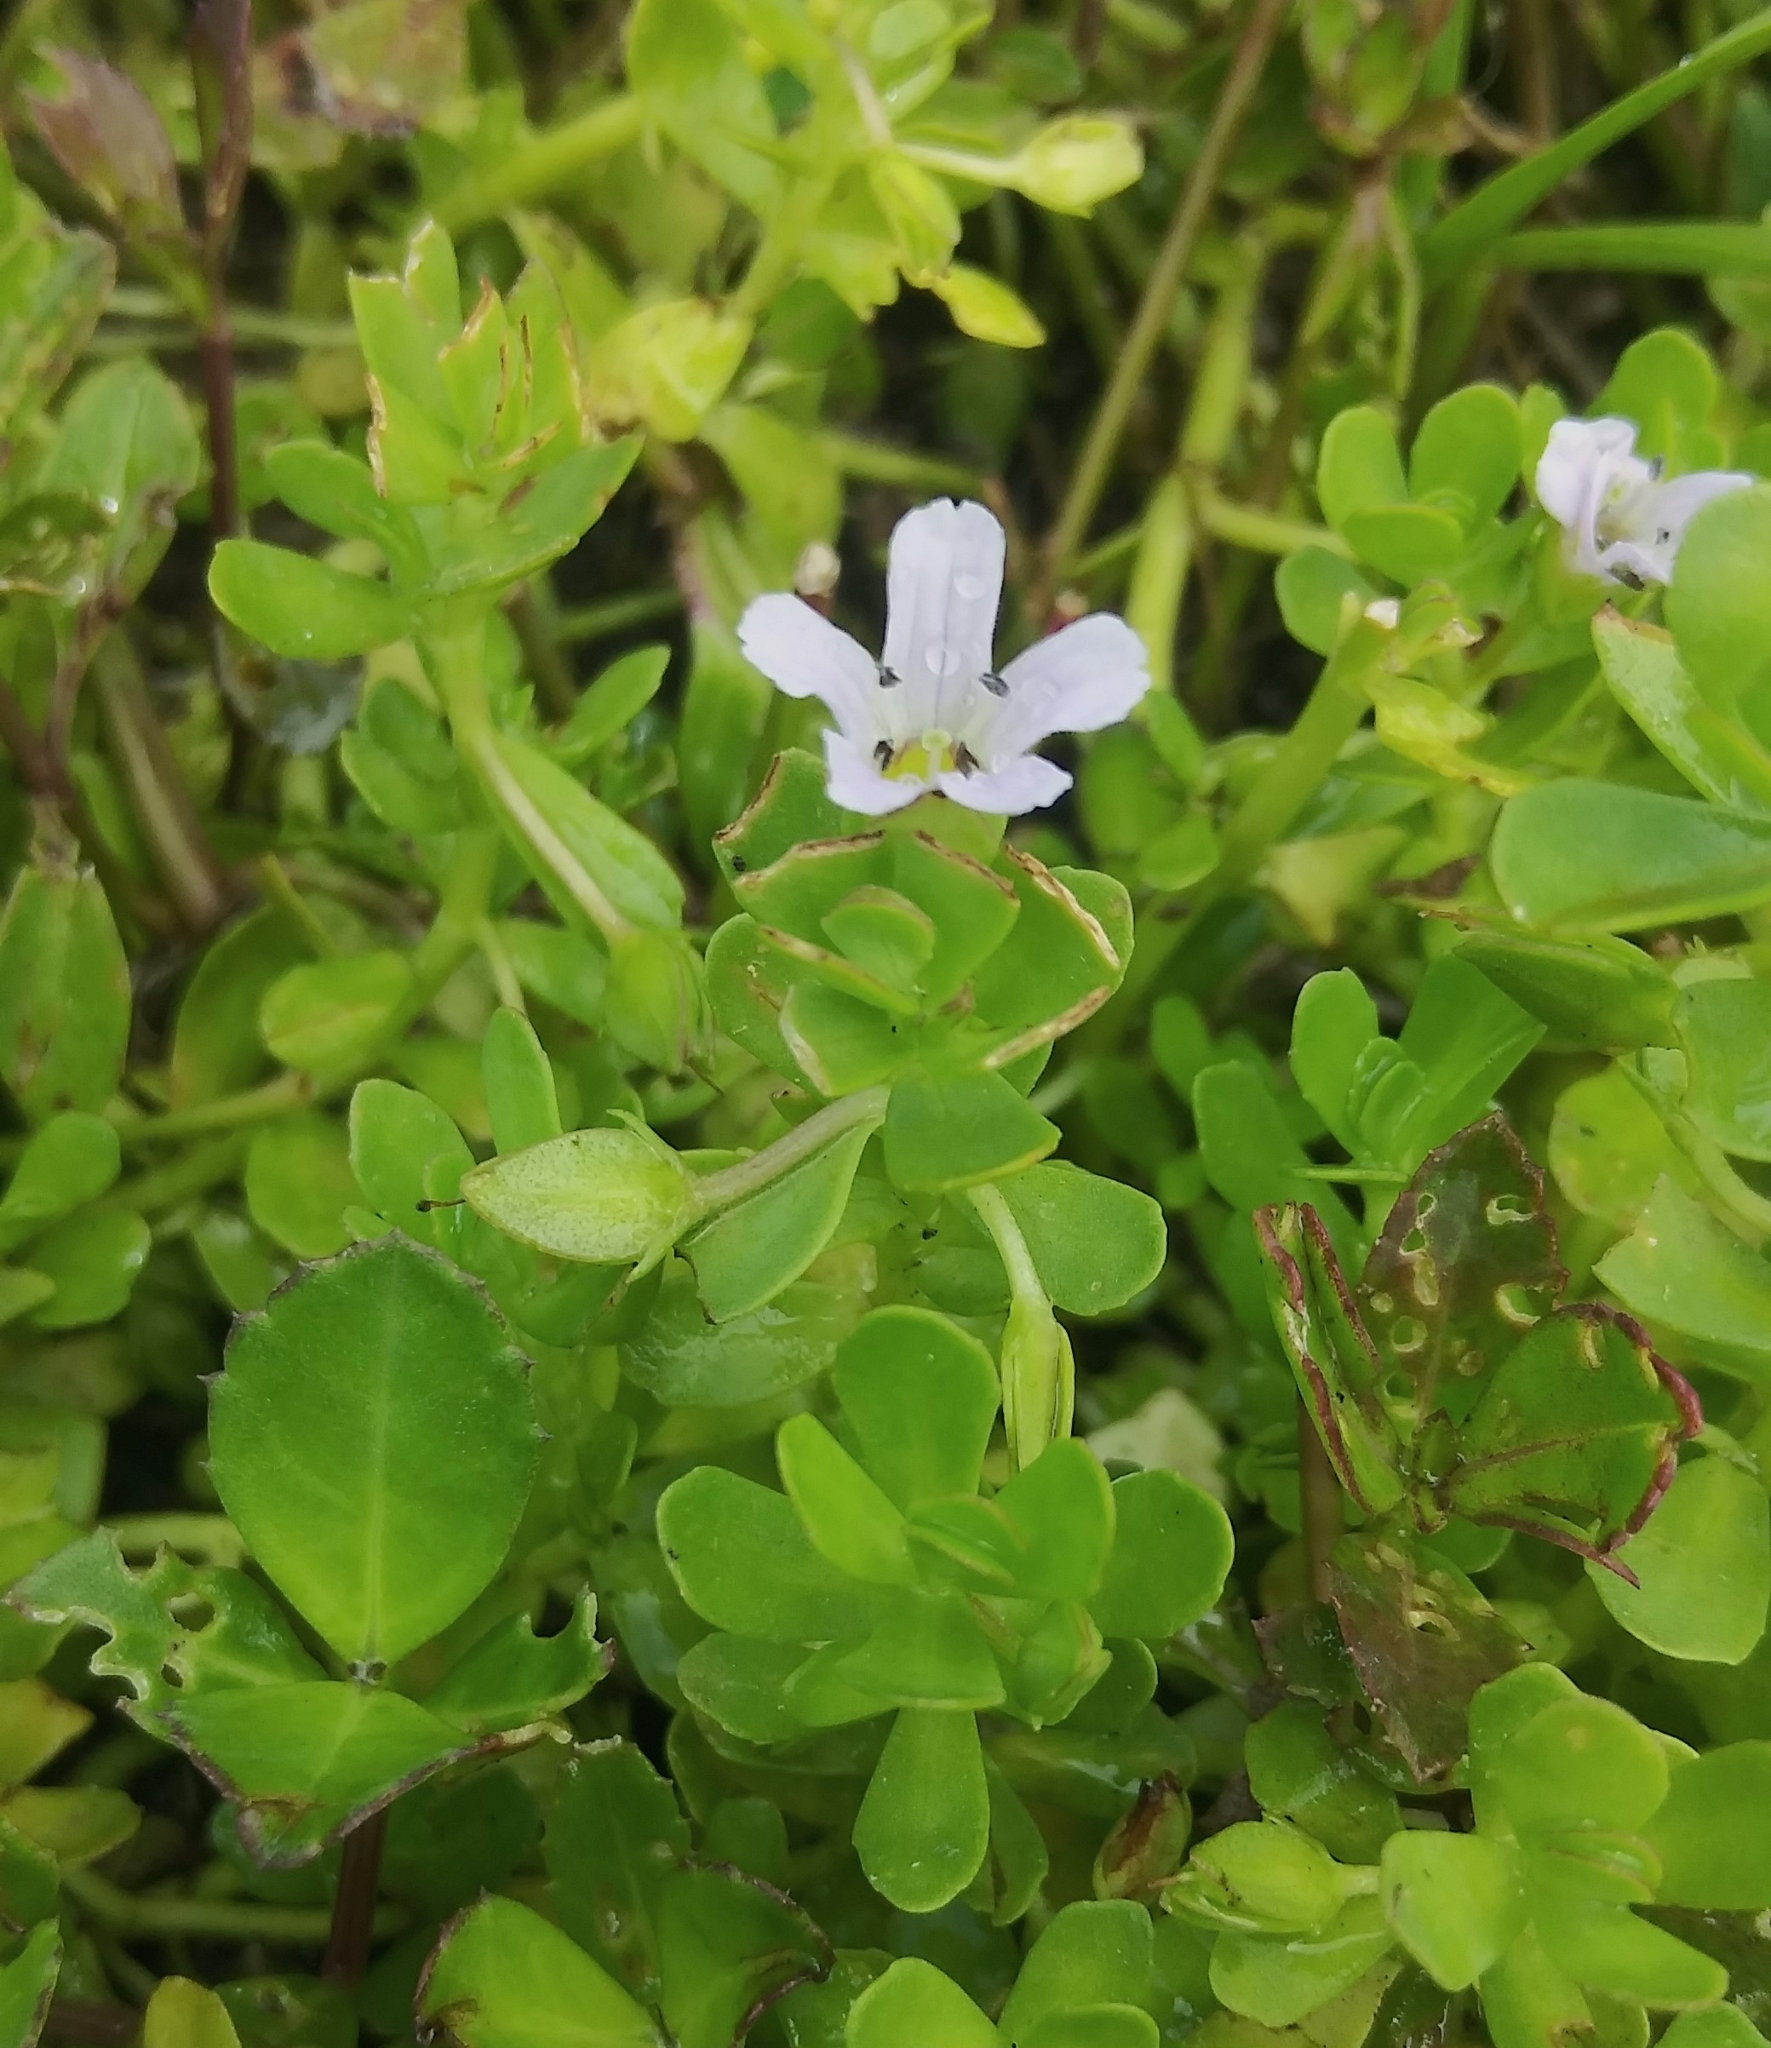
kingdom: Plantae
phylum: Tracheophyta
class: Magnoliopsida
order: Lamiales
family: Plantaginaceae
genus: Bacopa
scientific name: Bacopa monnieri
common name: Indian-pennywort
